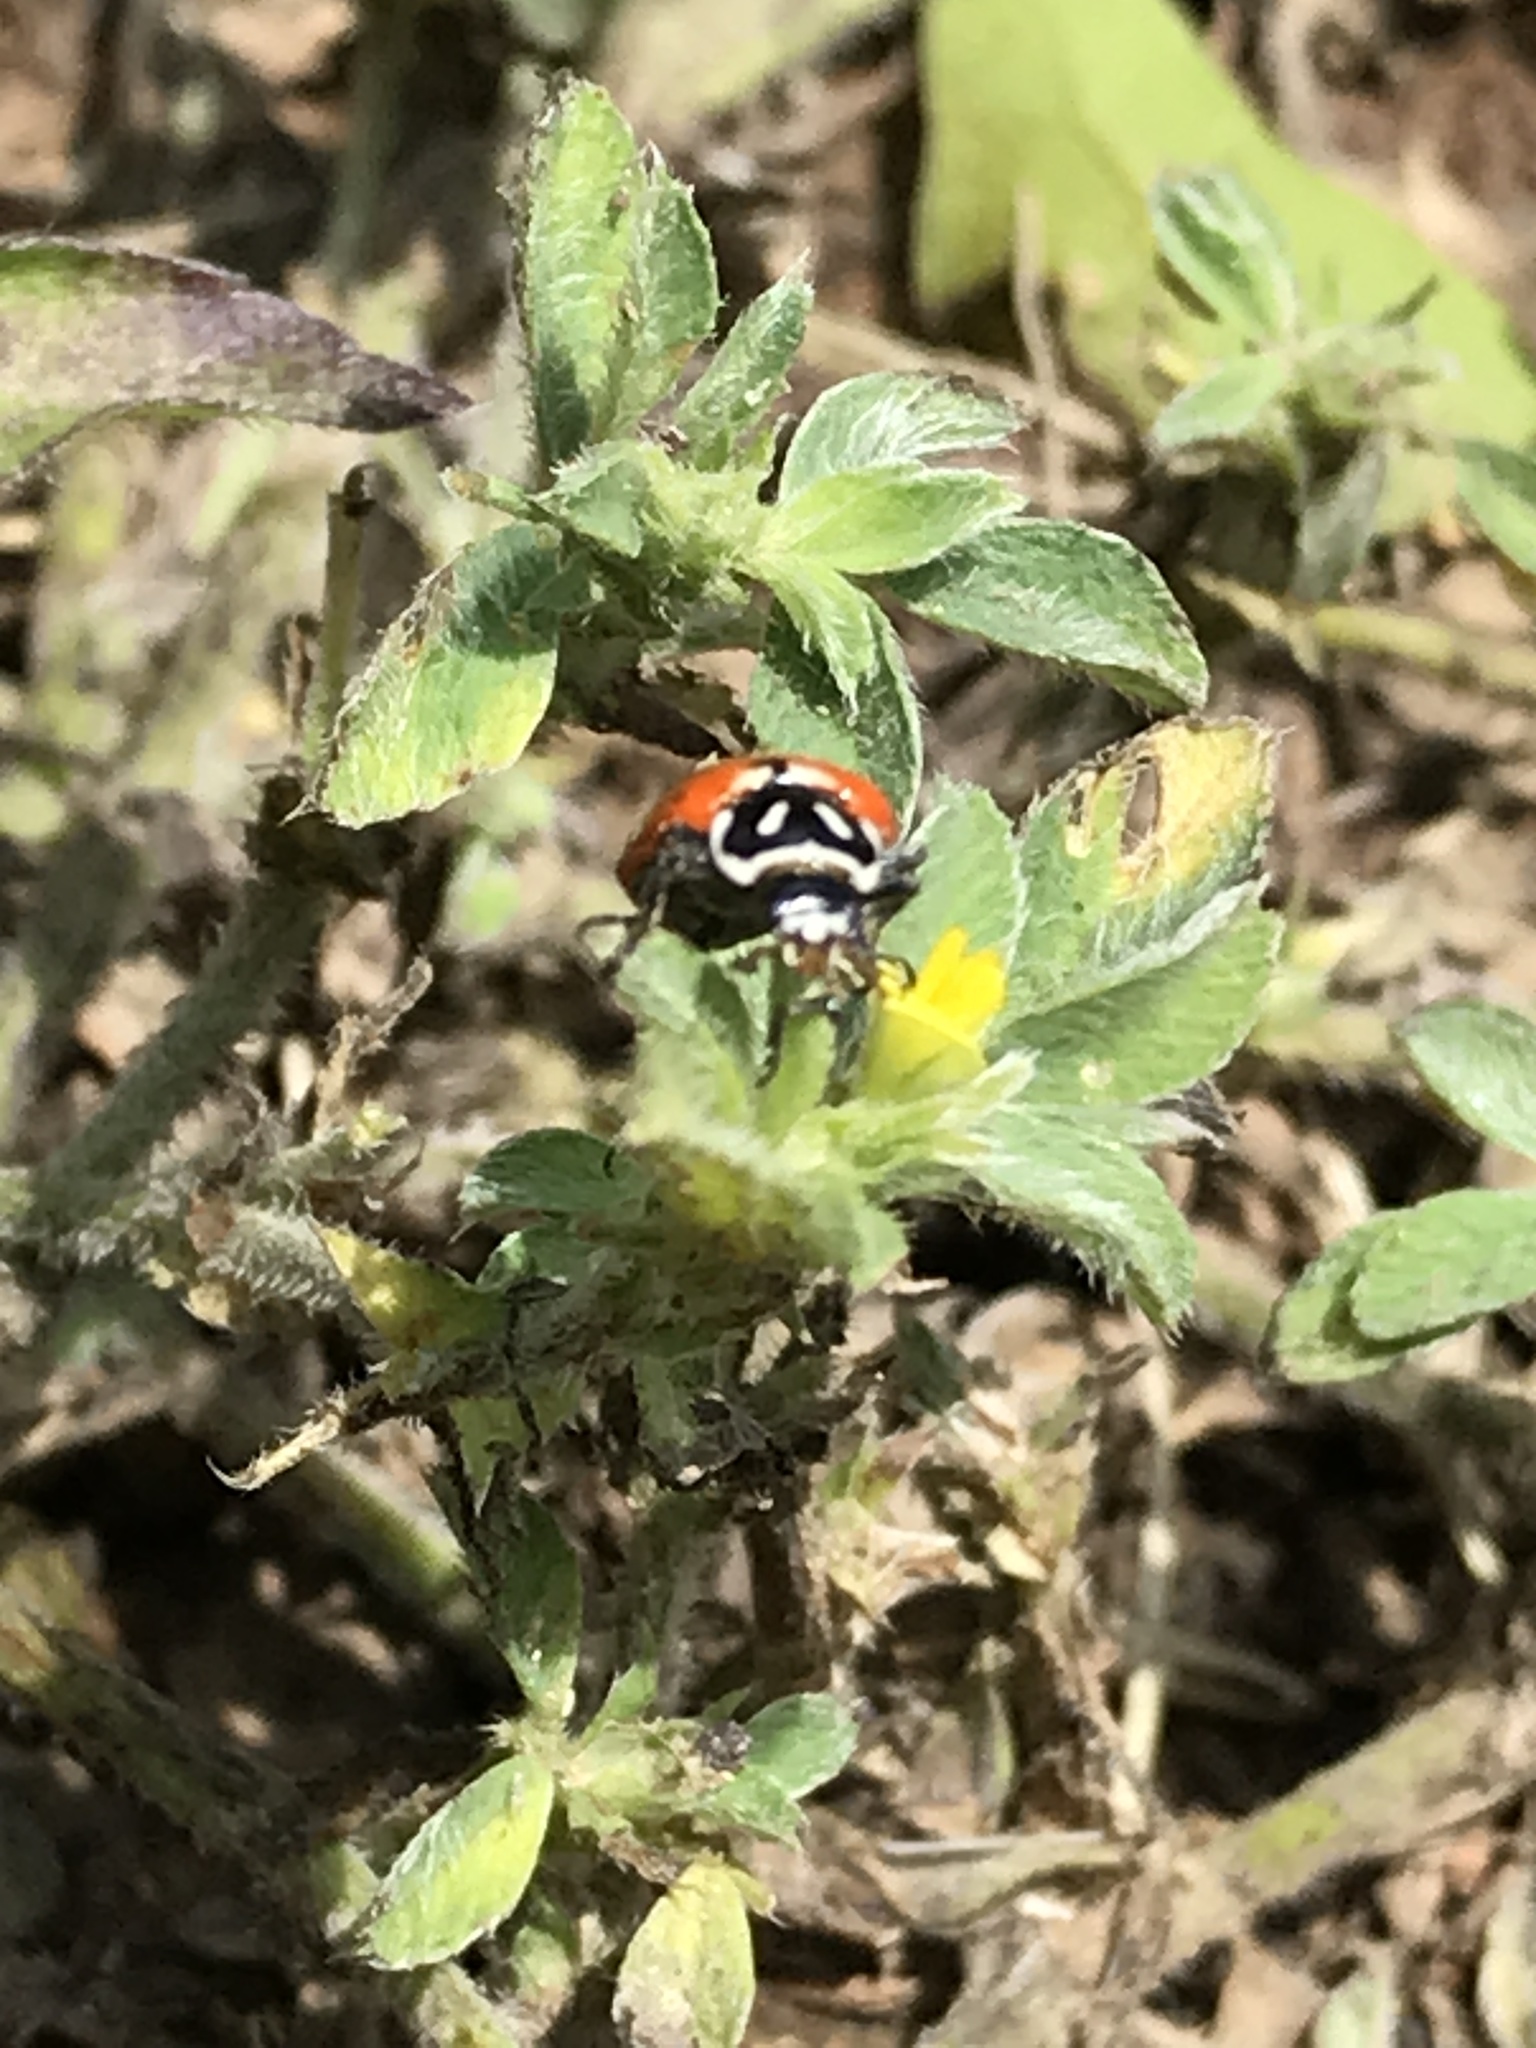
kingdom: Animalia
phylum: Arthropoda
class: Insecta
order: Coleoptera
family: Coccinellidae
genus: Hippodamia
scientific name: Hippodamia convergens
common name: Convergent lady beetle
